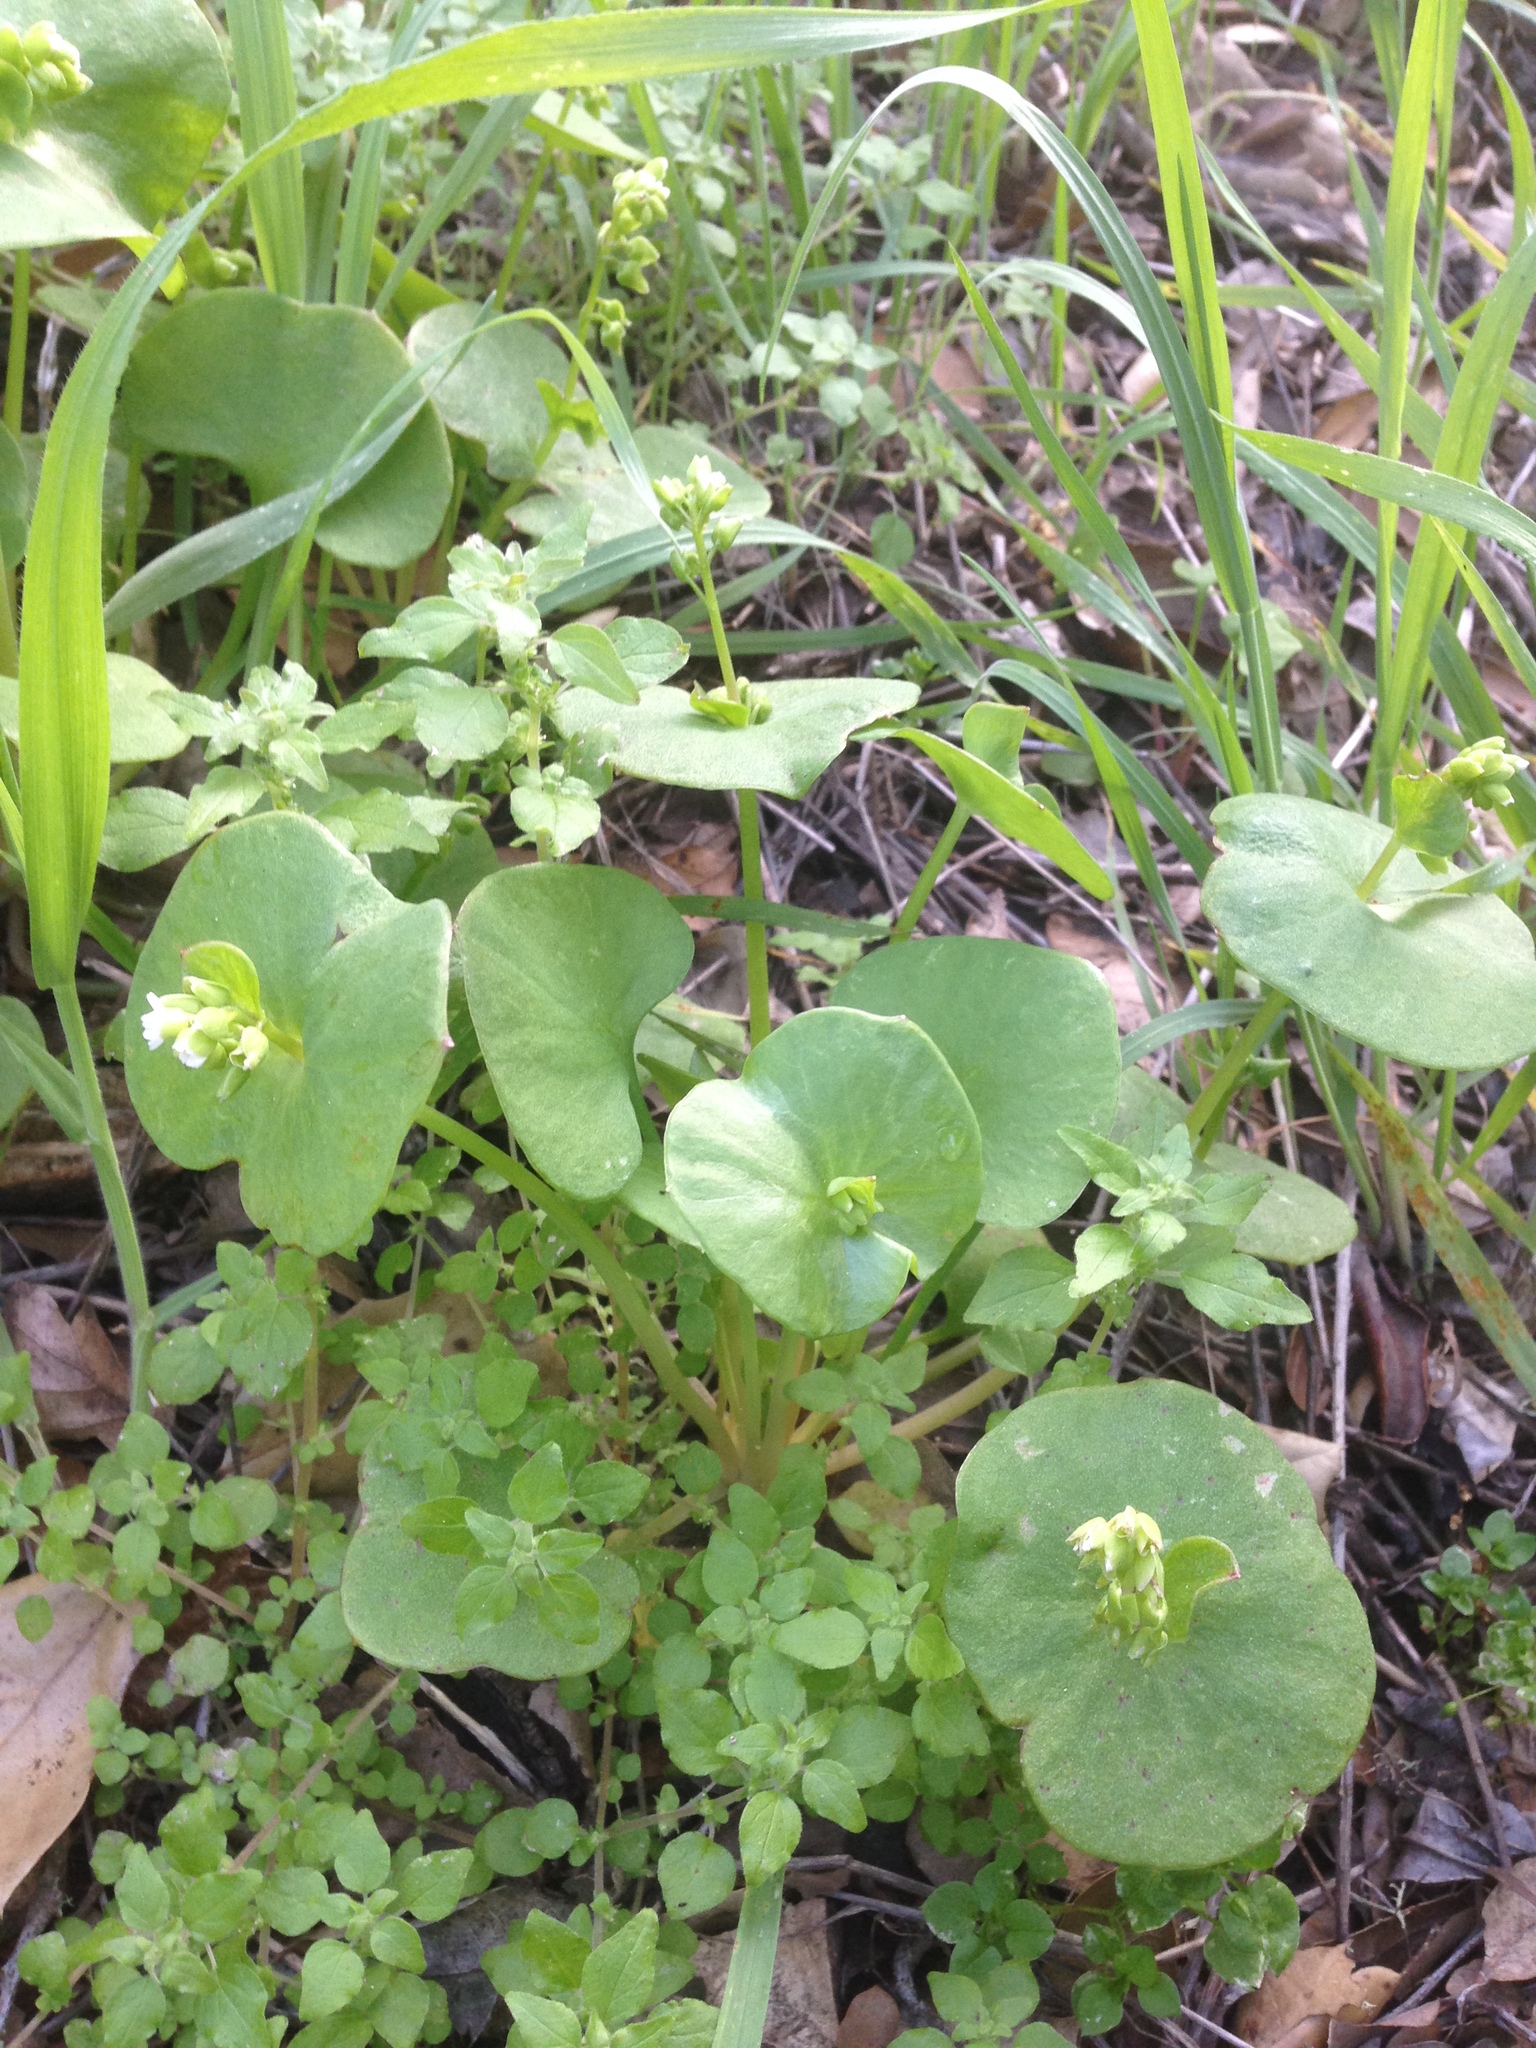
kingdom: Plantae
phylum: Tracheophyta
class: Magnoliopsida
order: Caryophyllales
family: Montiaceae
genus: Claytonia
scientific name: Claytonia perfoliata
